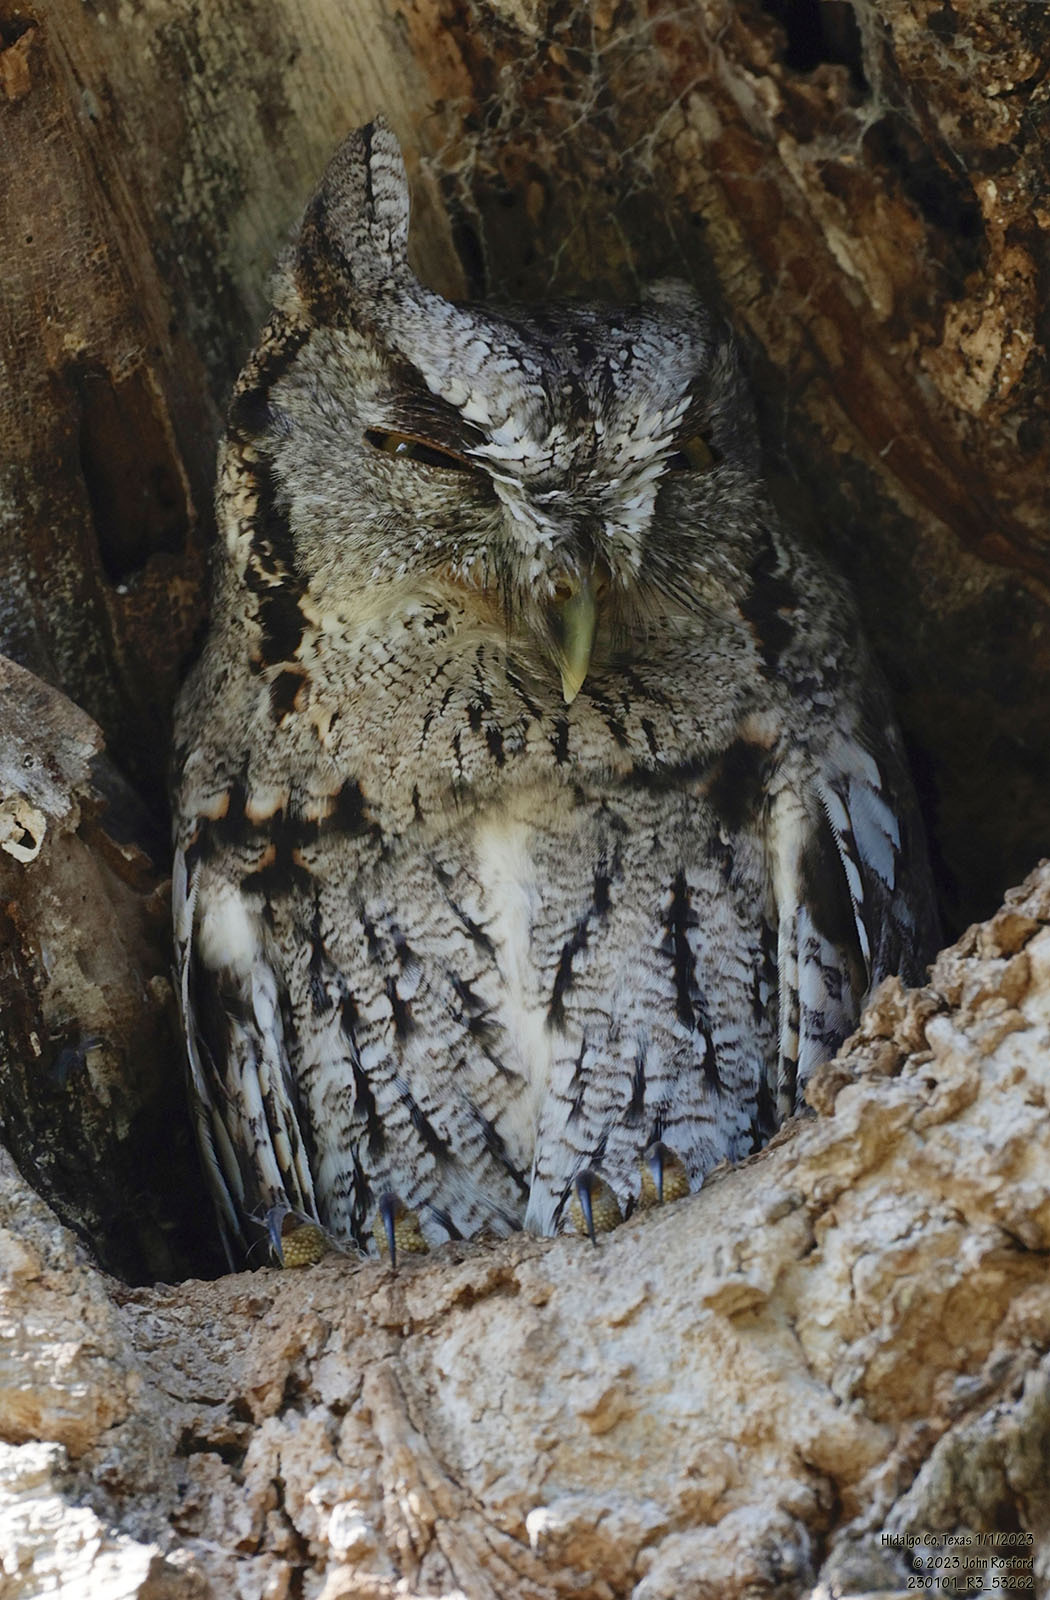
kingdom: Animalia
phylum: Chordata
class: Aves
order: Strigiformes
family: Strigidae
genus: Megascops
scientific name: Megascops asio
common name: Eastern screech-owl
